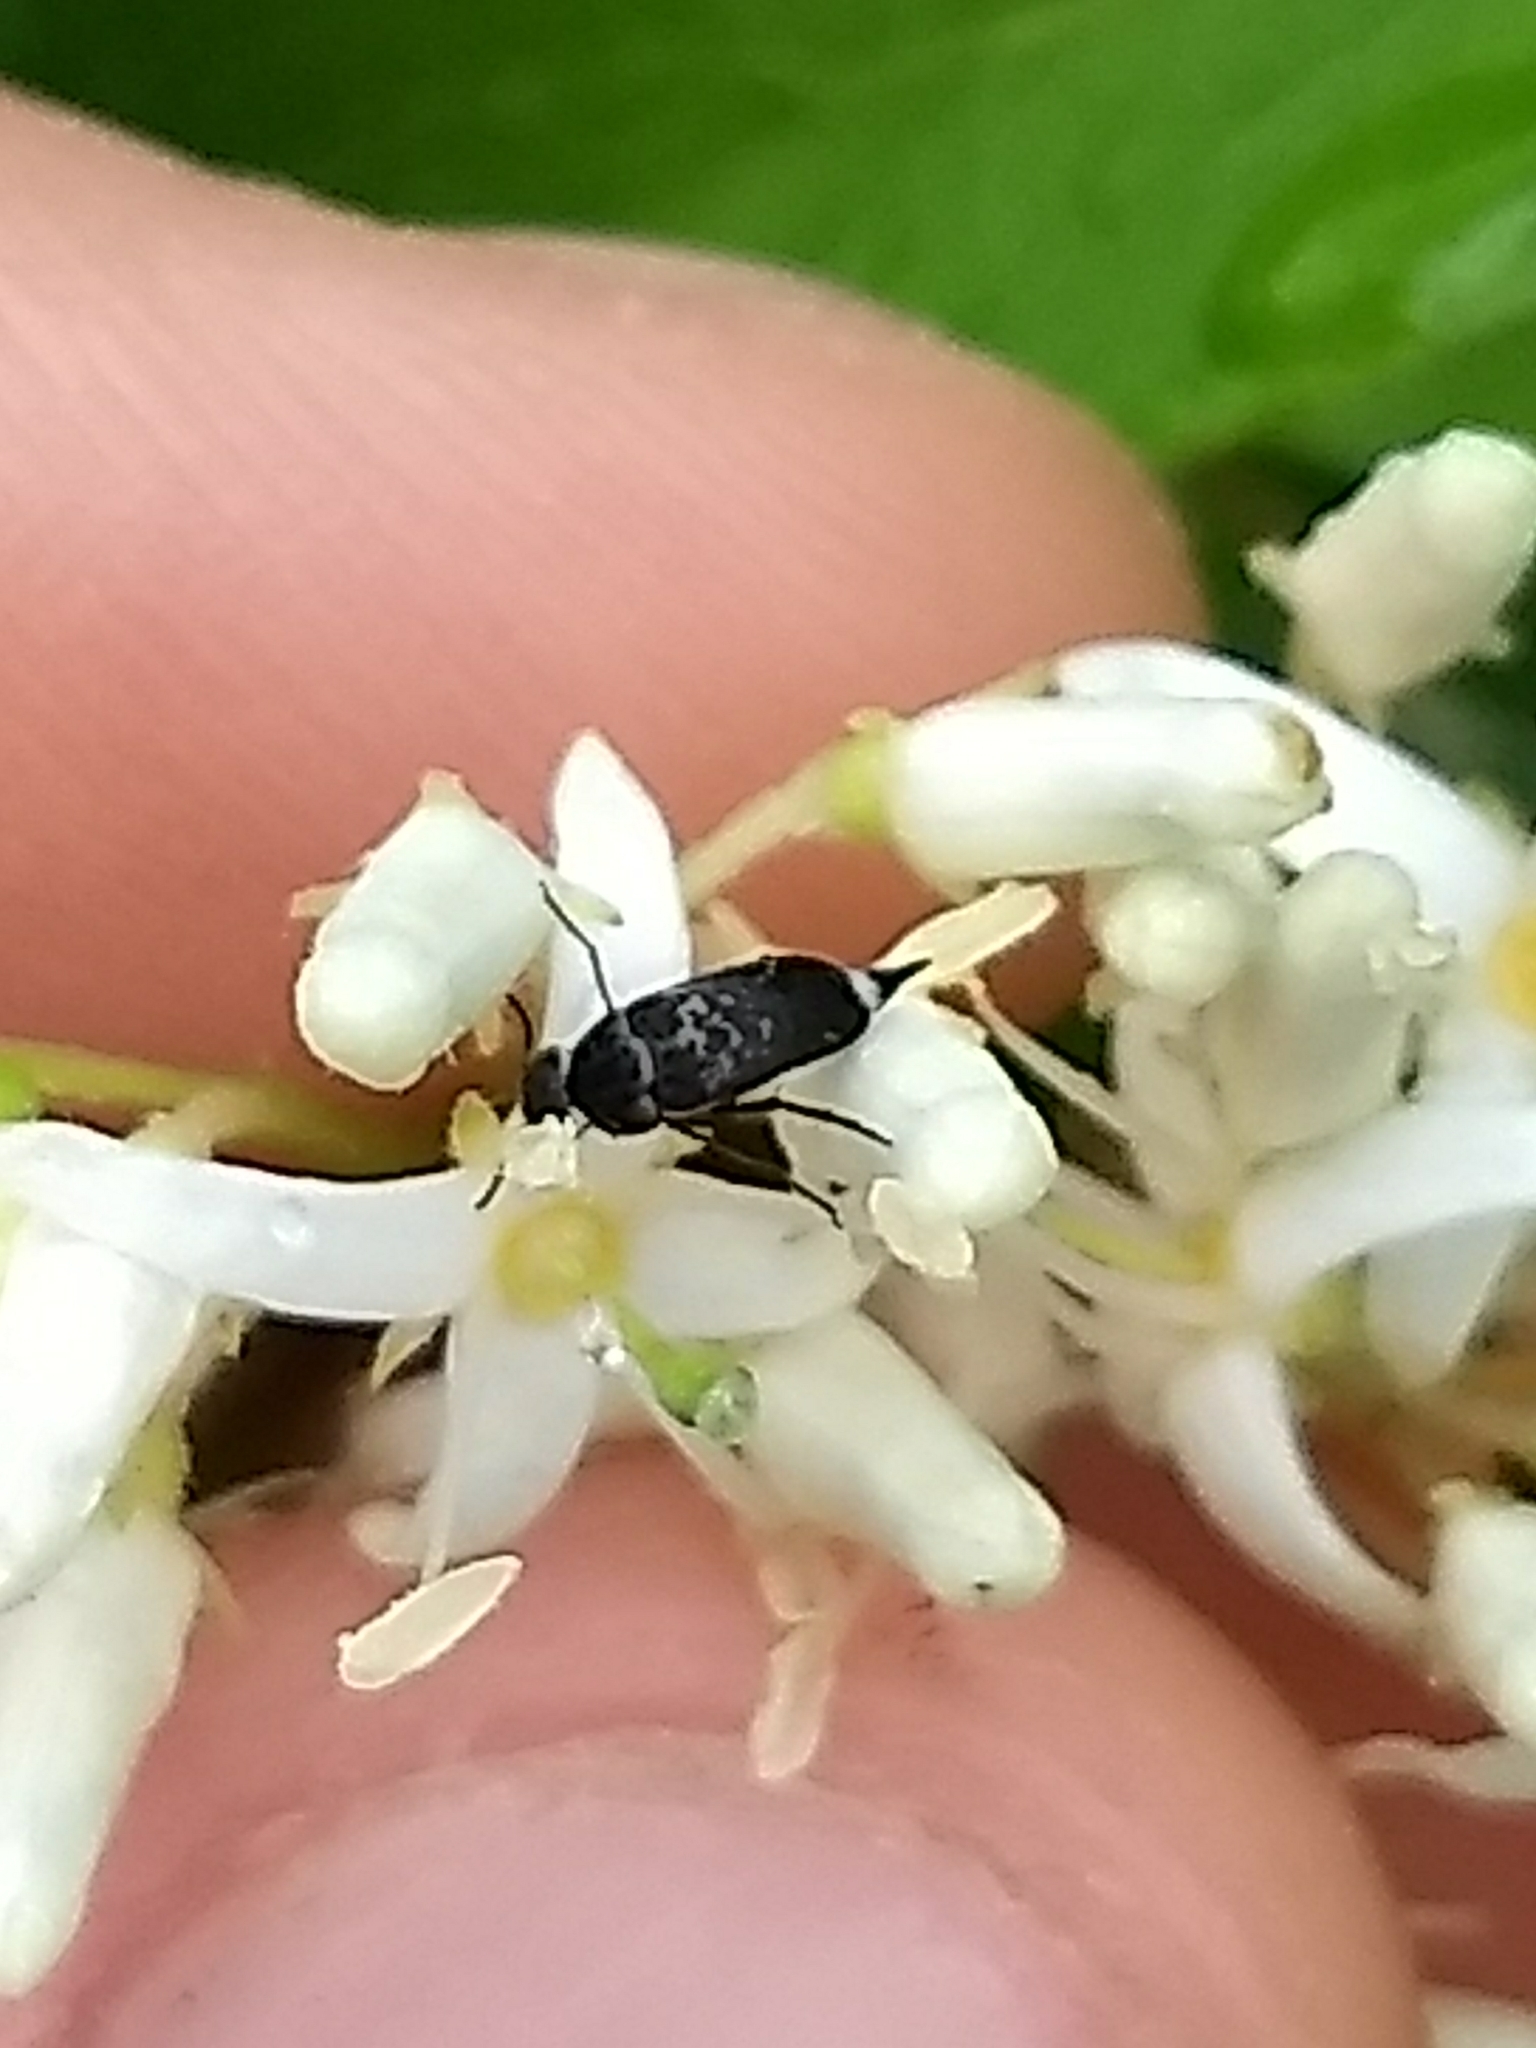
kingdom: Animalia
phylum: Arthropoda
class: Insecta
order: Coleoptera
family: Mordellidae
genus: Mordella
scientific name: Mordella marginata
